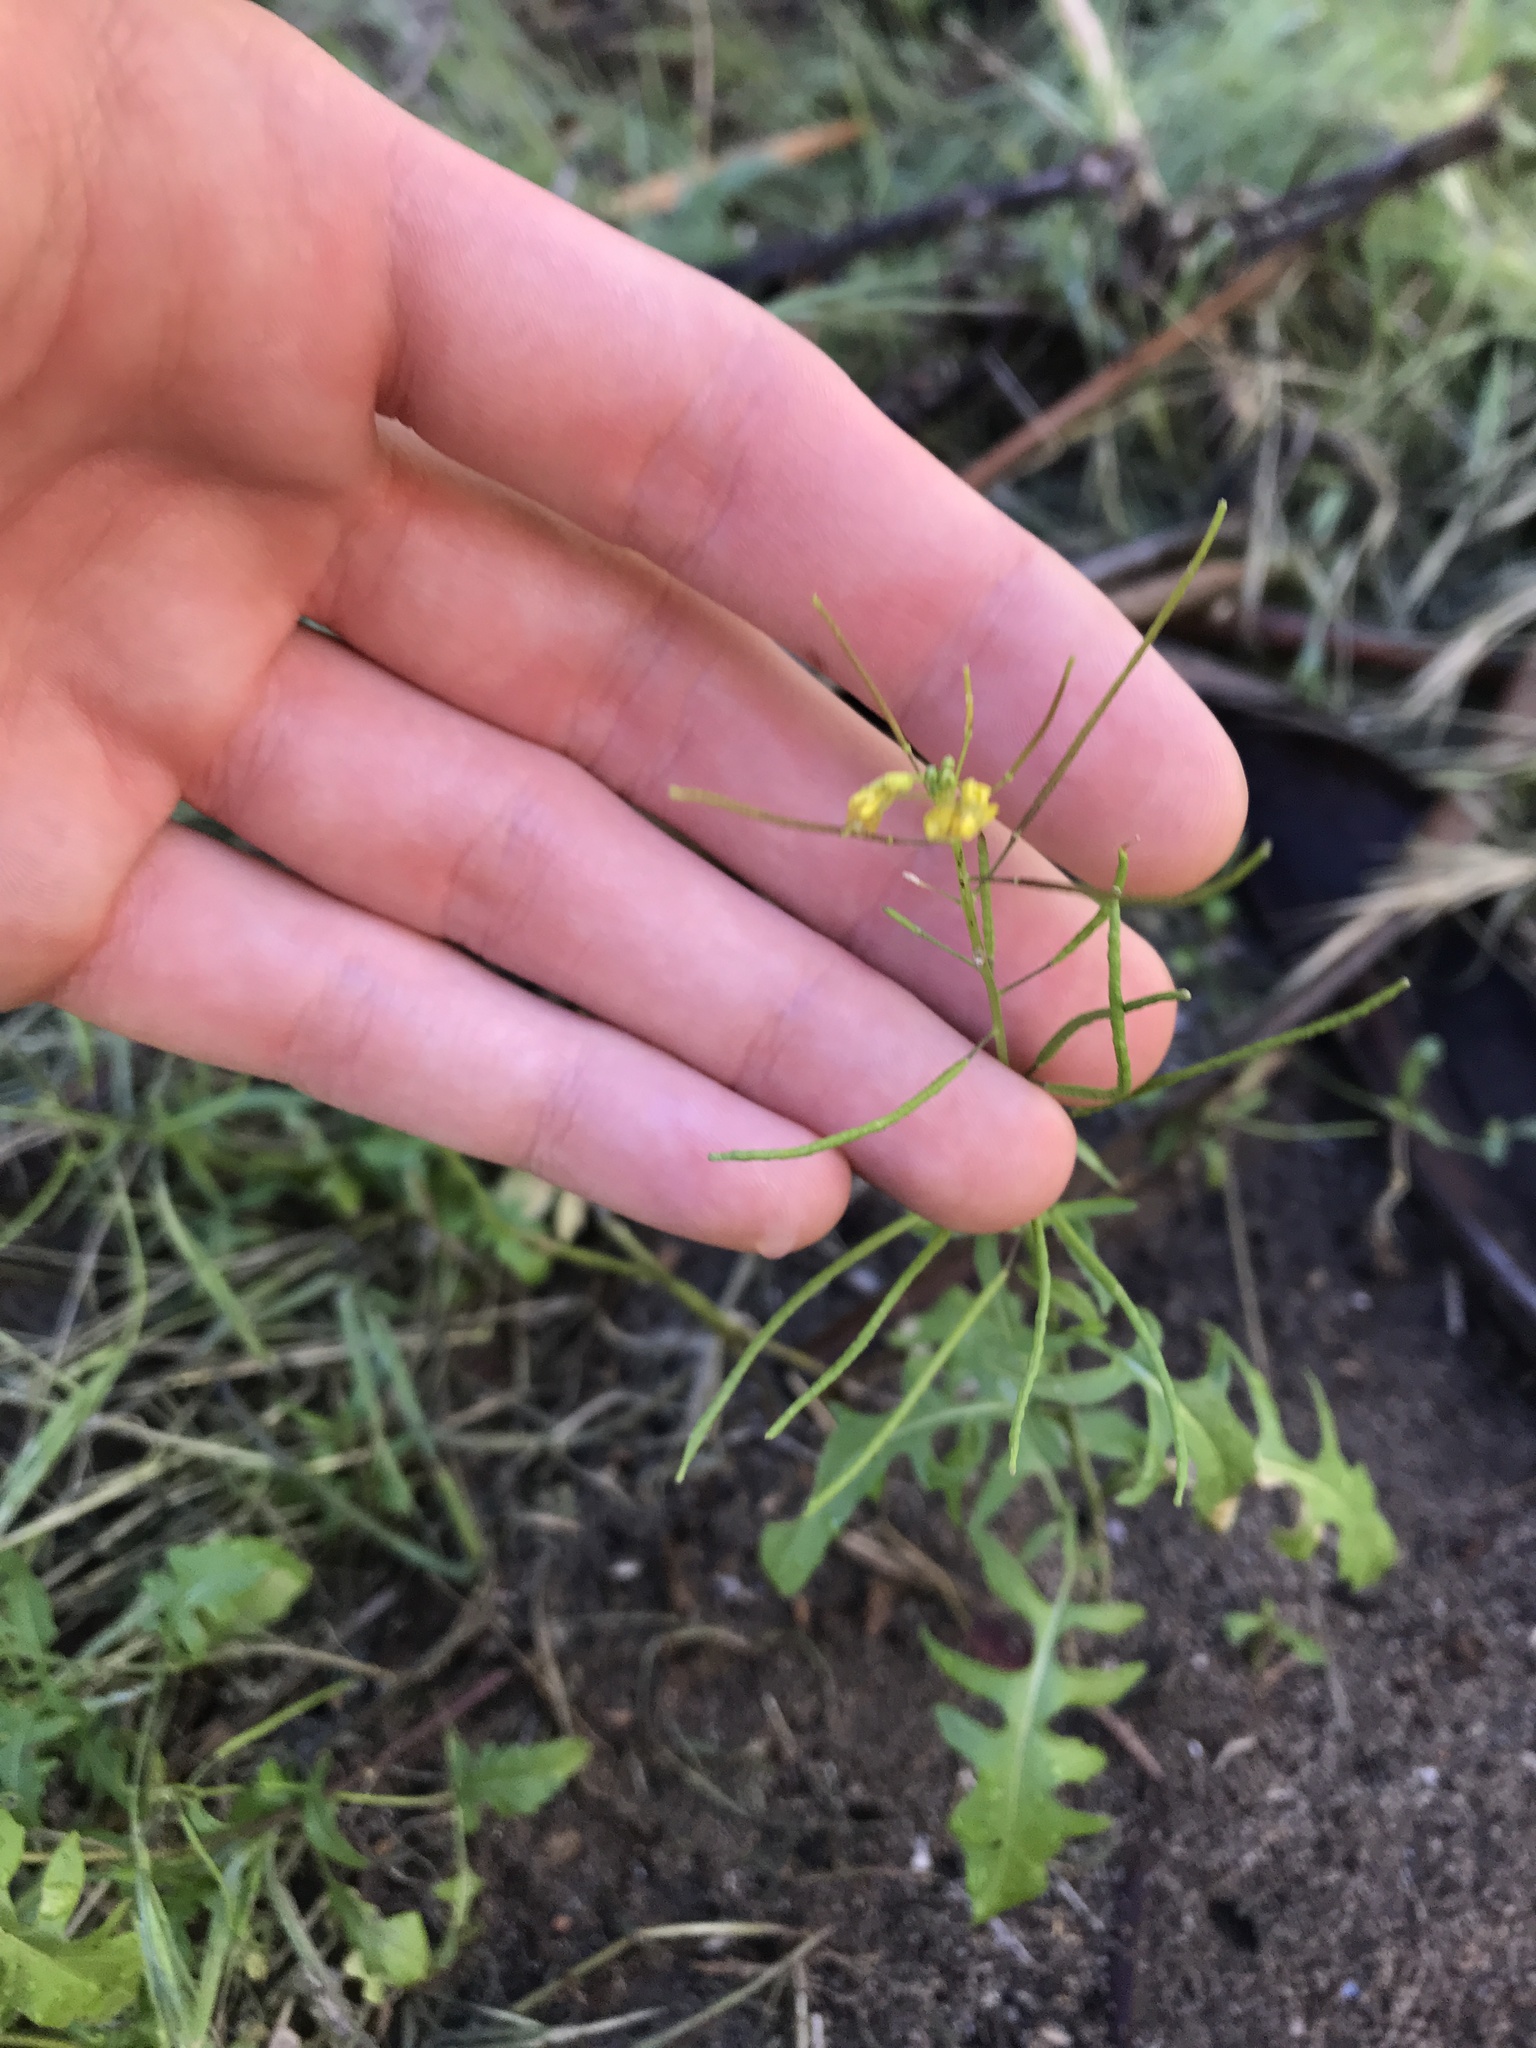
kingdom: Plantae
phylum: Tracheophyta
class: Magnoliopsida
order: Brassicales
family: Brassicaceae
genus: Sisymbrium
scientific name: Sisymbrium irio
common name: London rocket
